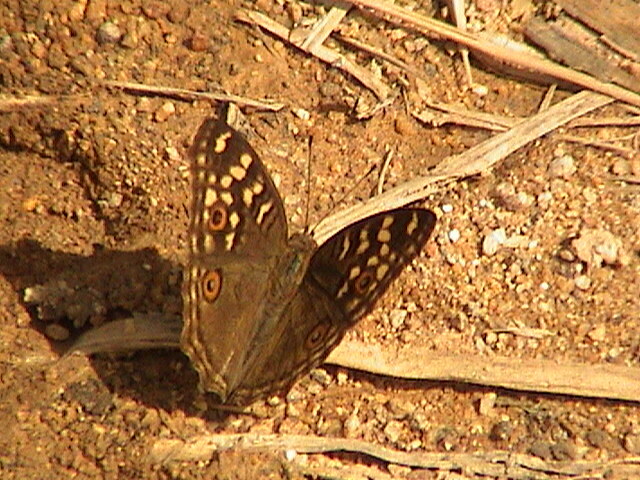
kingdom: Animalia
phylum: Arthropoda
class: Insecta
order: Lepidoptera
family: Nymphalidae
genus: Junonia
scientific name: Junonia lemonias
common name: Lemon pansy
